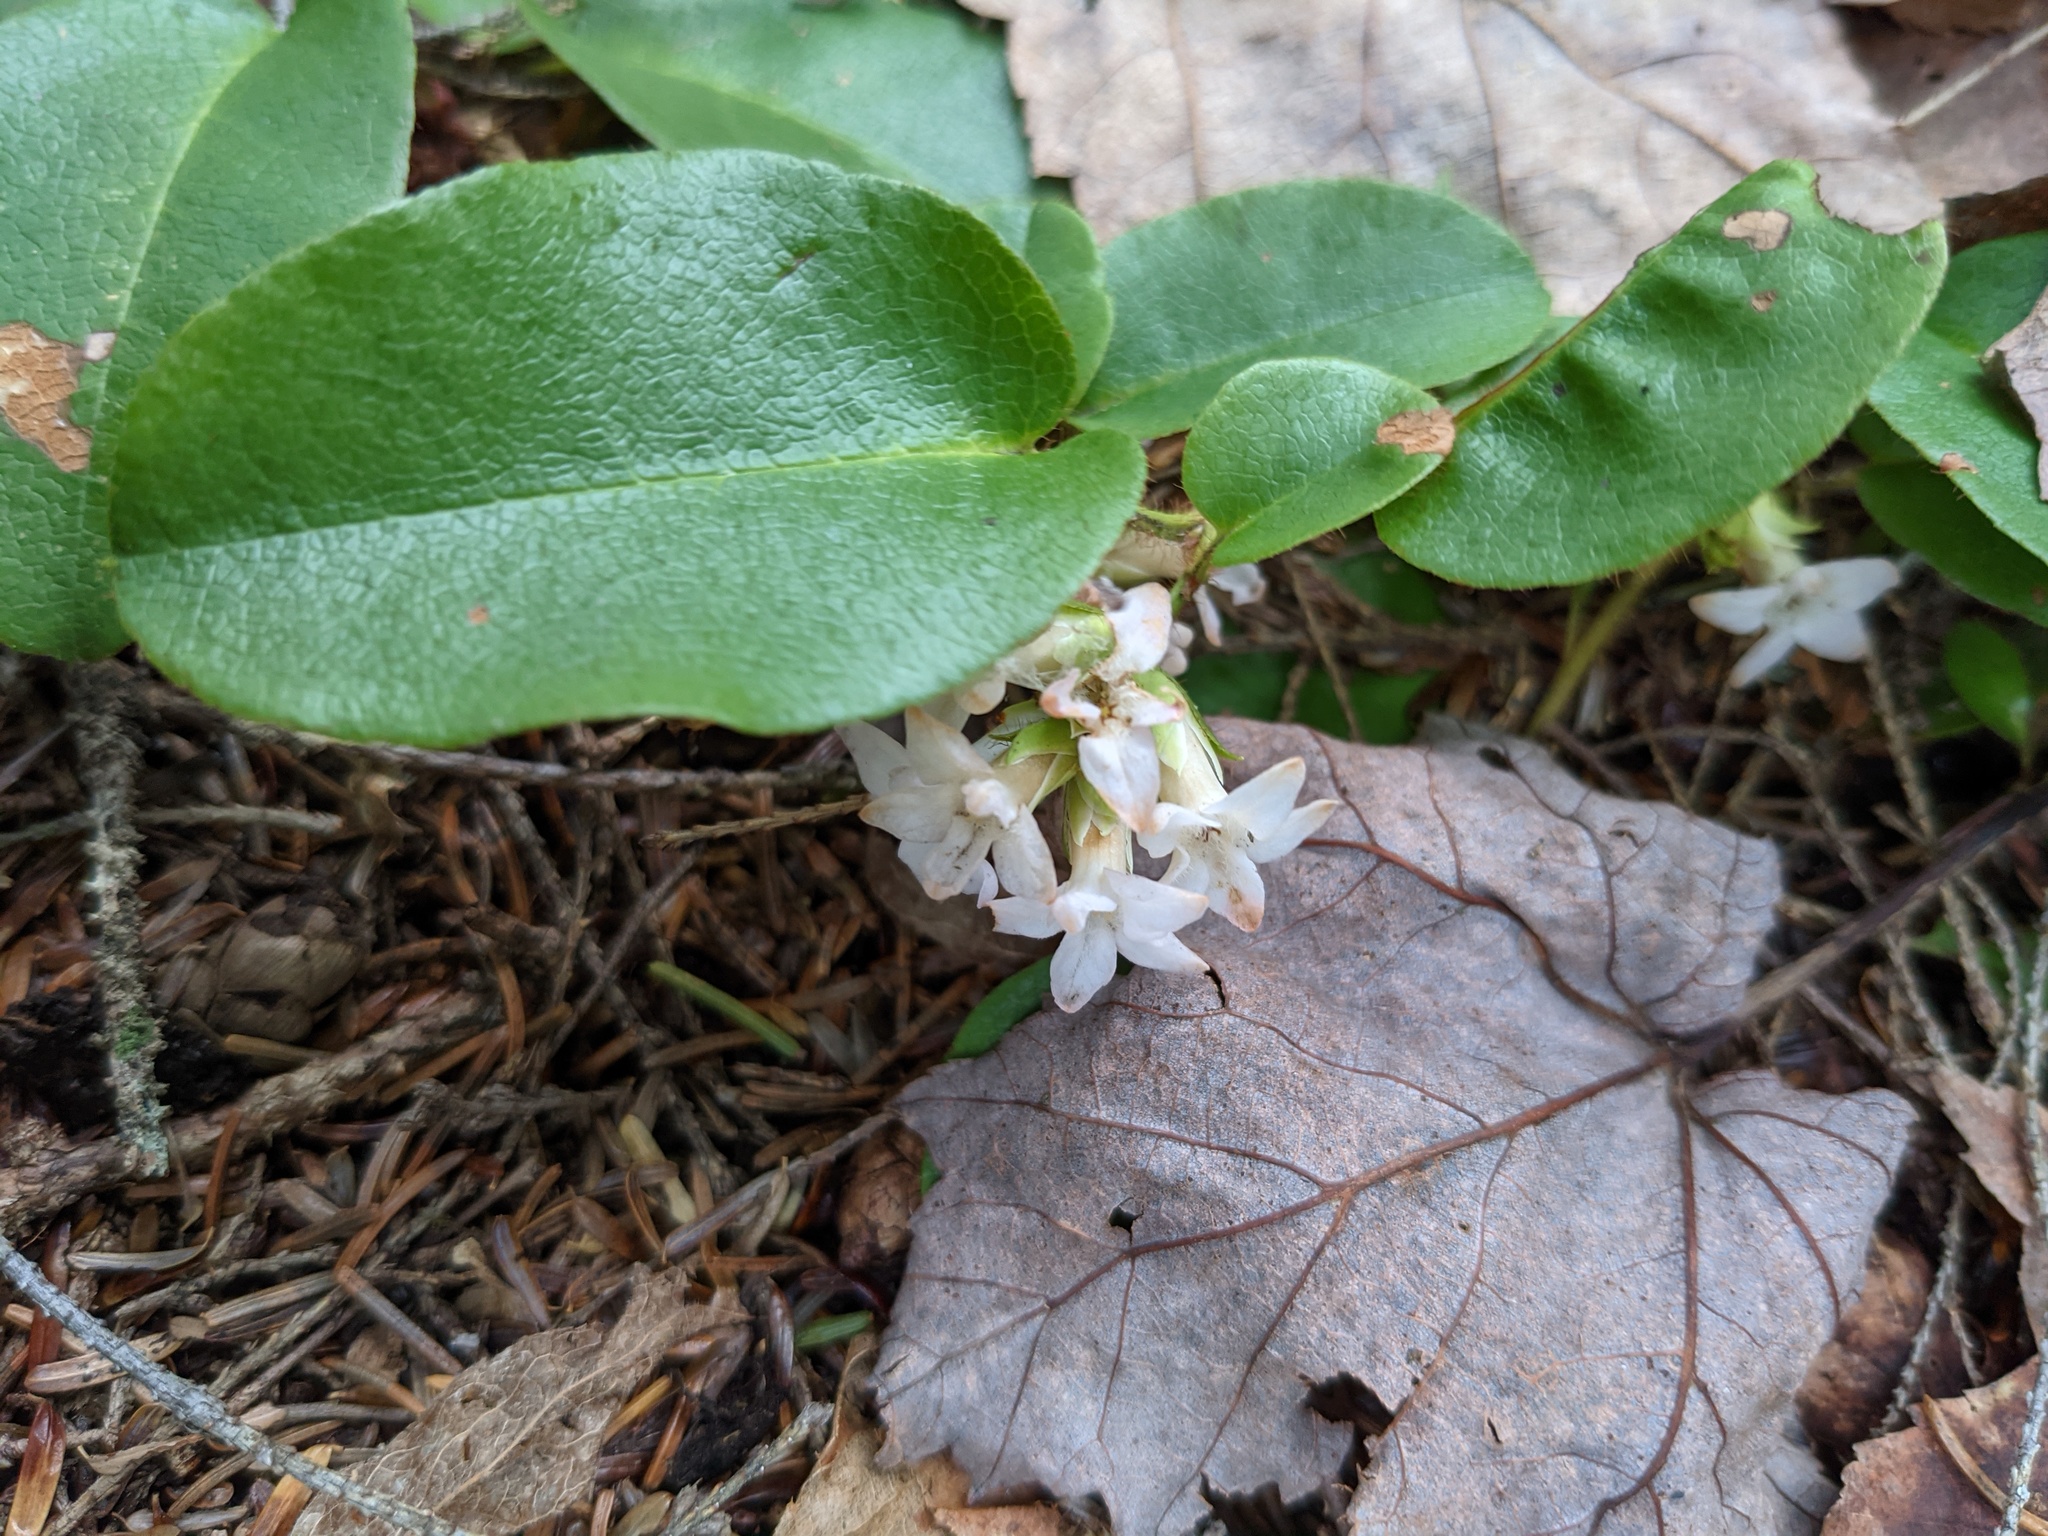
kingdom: Plantae
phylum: Tracheophyta
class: Magnoliopsida
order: Ericales
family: Ericaceae
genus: Epigaea
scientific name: Epigaea repens
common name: Gravelroot
